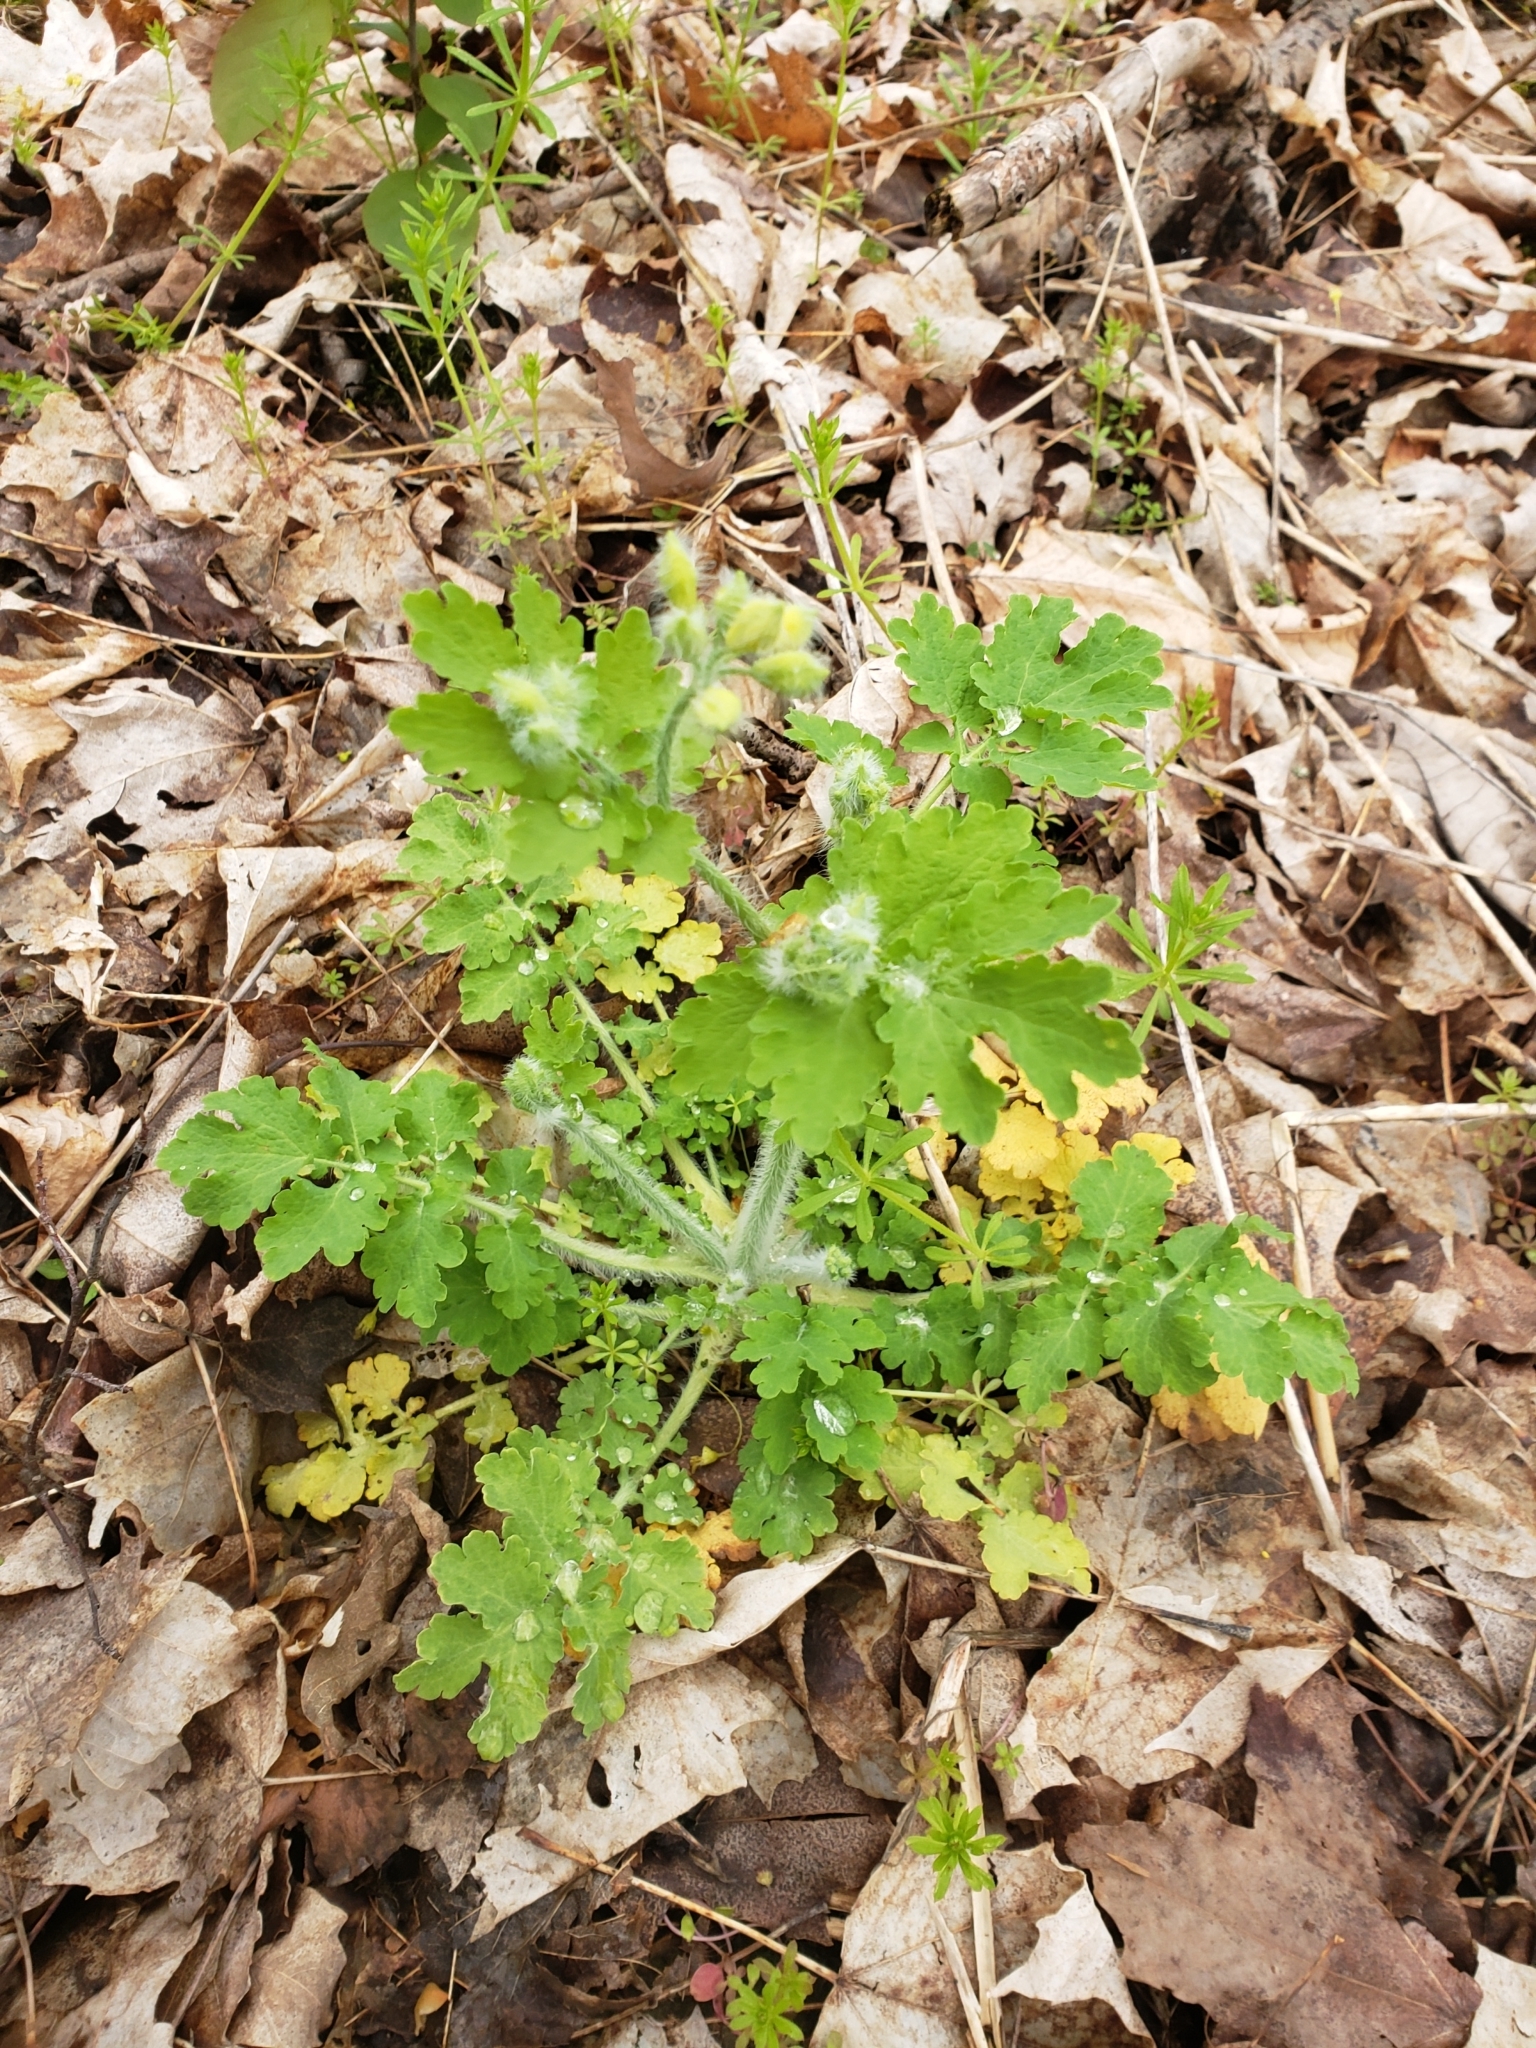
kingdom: Plantae
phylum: Tracheophyta
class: Magnoliopsida
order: Ranunculales
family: Papaveraceae
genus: Chelidonium
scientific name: Chelidonium majus
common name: Greater celandine
